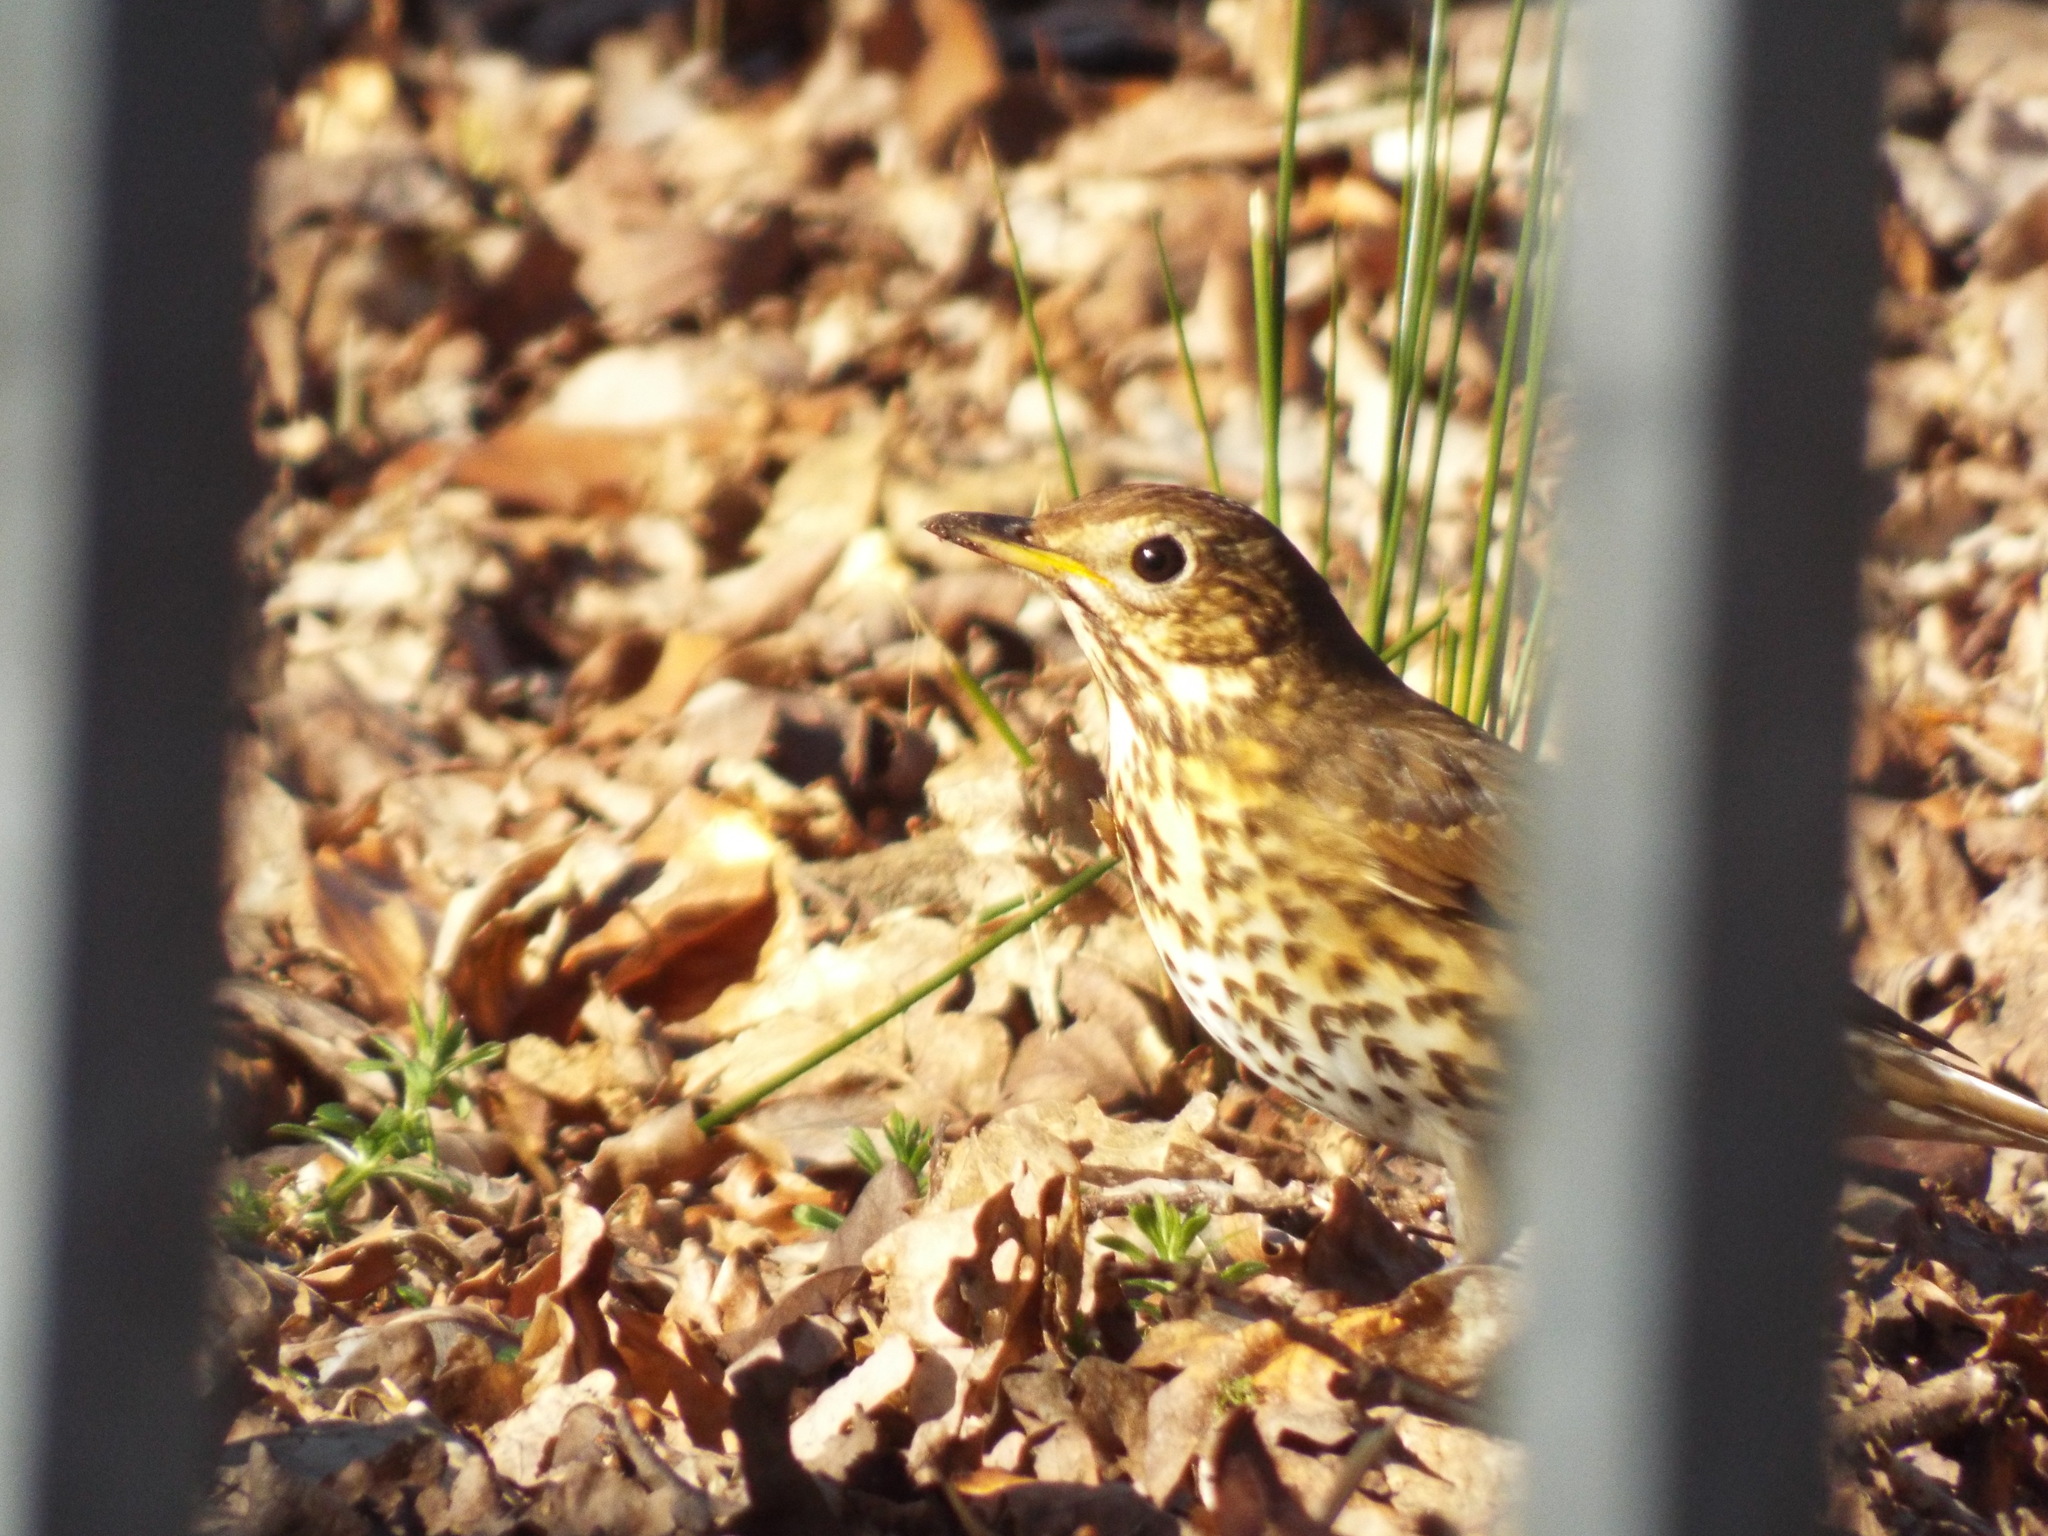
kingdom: Animalia
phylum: Chordata
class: Aves
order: Passeriformes
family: Turdidae
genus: Turdus
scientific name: Turdus philomelos
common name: Song thrush
